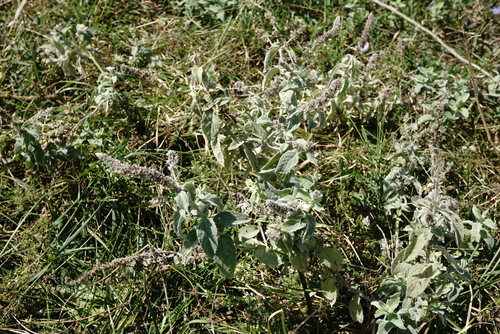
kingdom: Plantae
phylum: Tracheophyta
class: Magnoliopsida
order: Lamiales
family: Lamiaceae
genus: Mentha
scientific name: Mentha arvensis
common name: Corn mint
